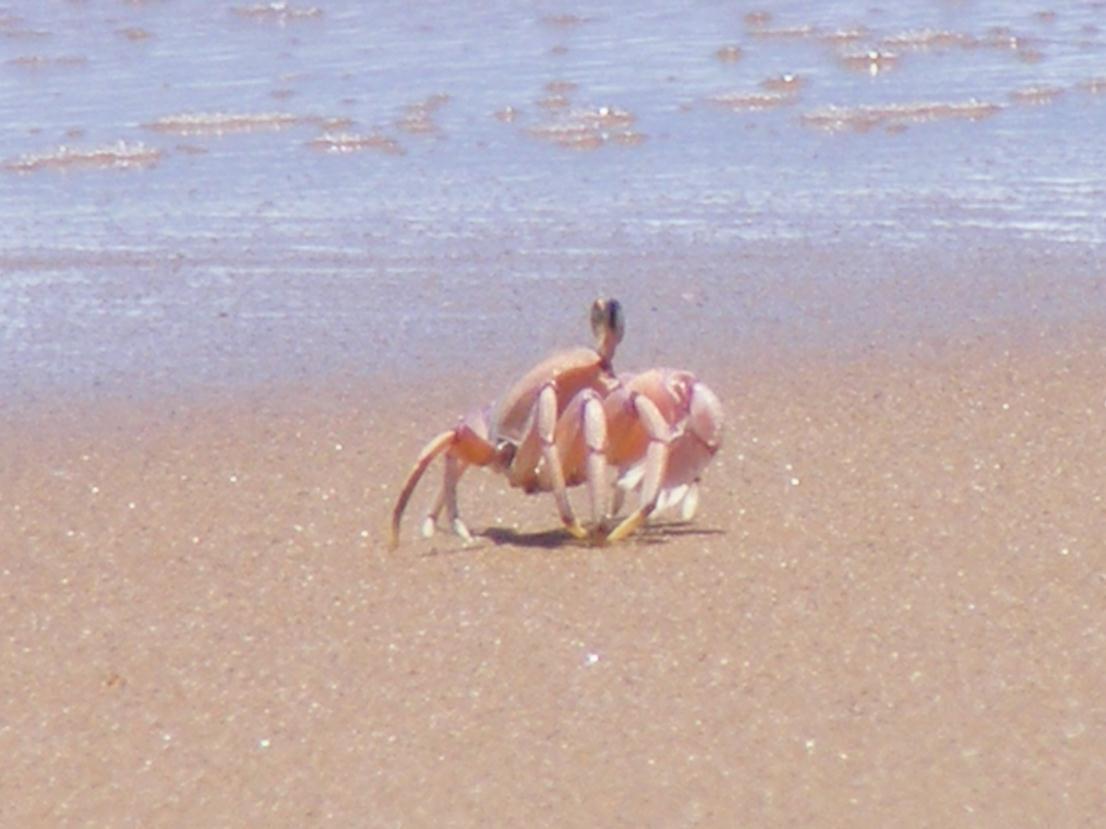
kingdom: Animalia
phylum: Arthropoda
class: Malacostraca
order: Decapoda
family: Ocypodidae
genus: Ocypode
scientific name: Ocypode ryderi
